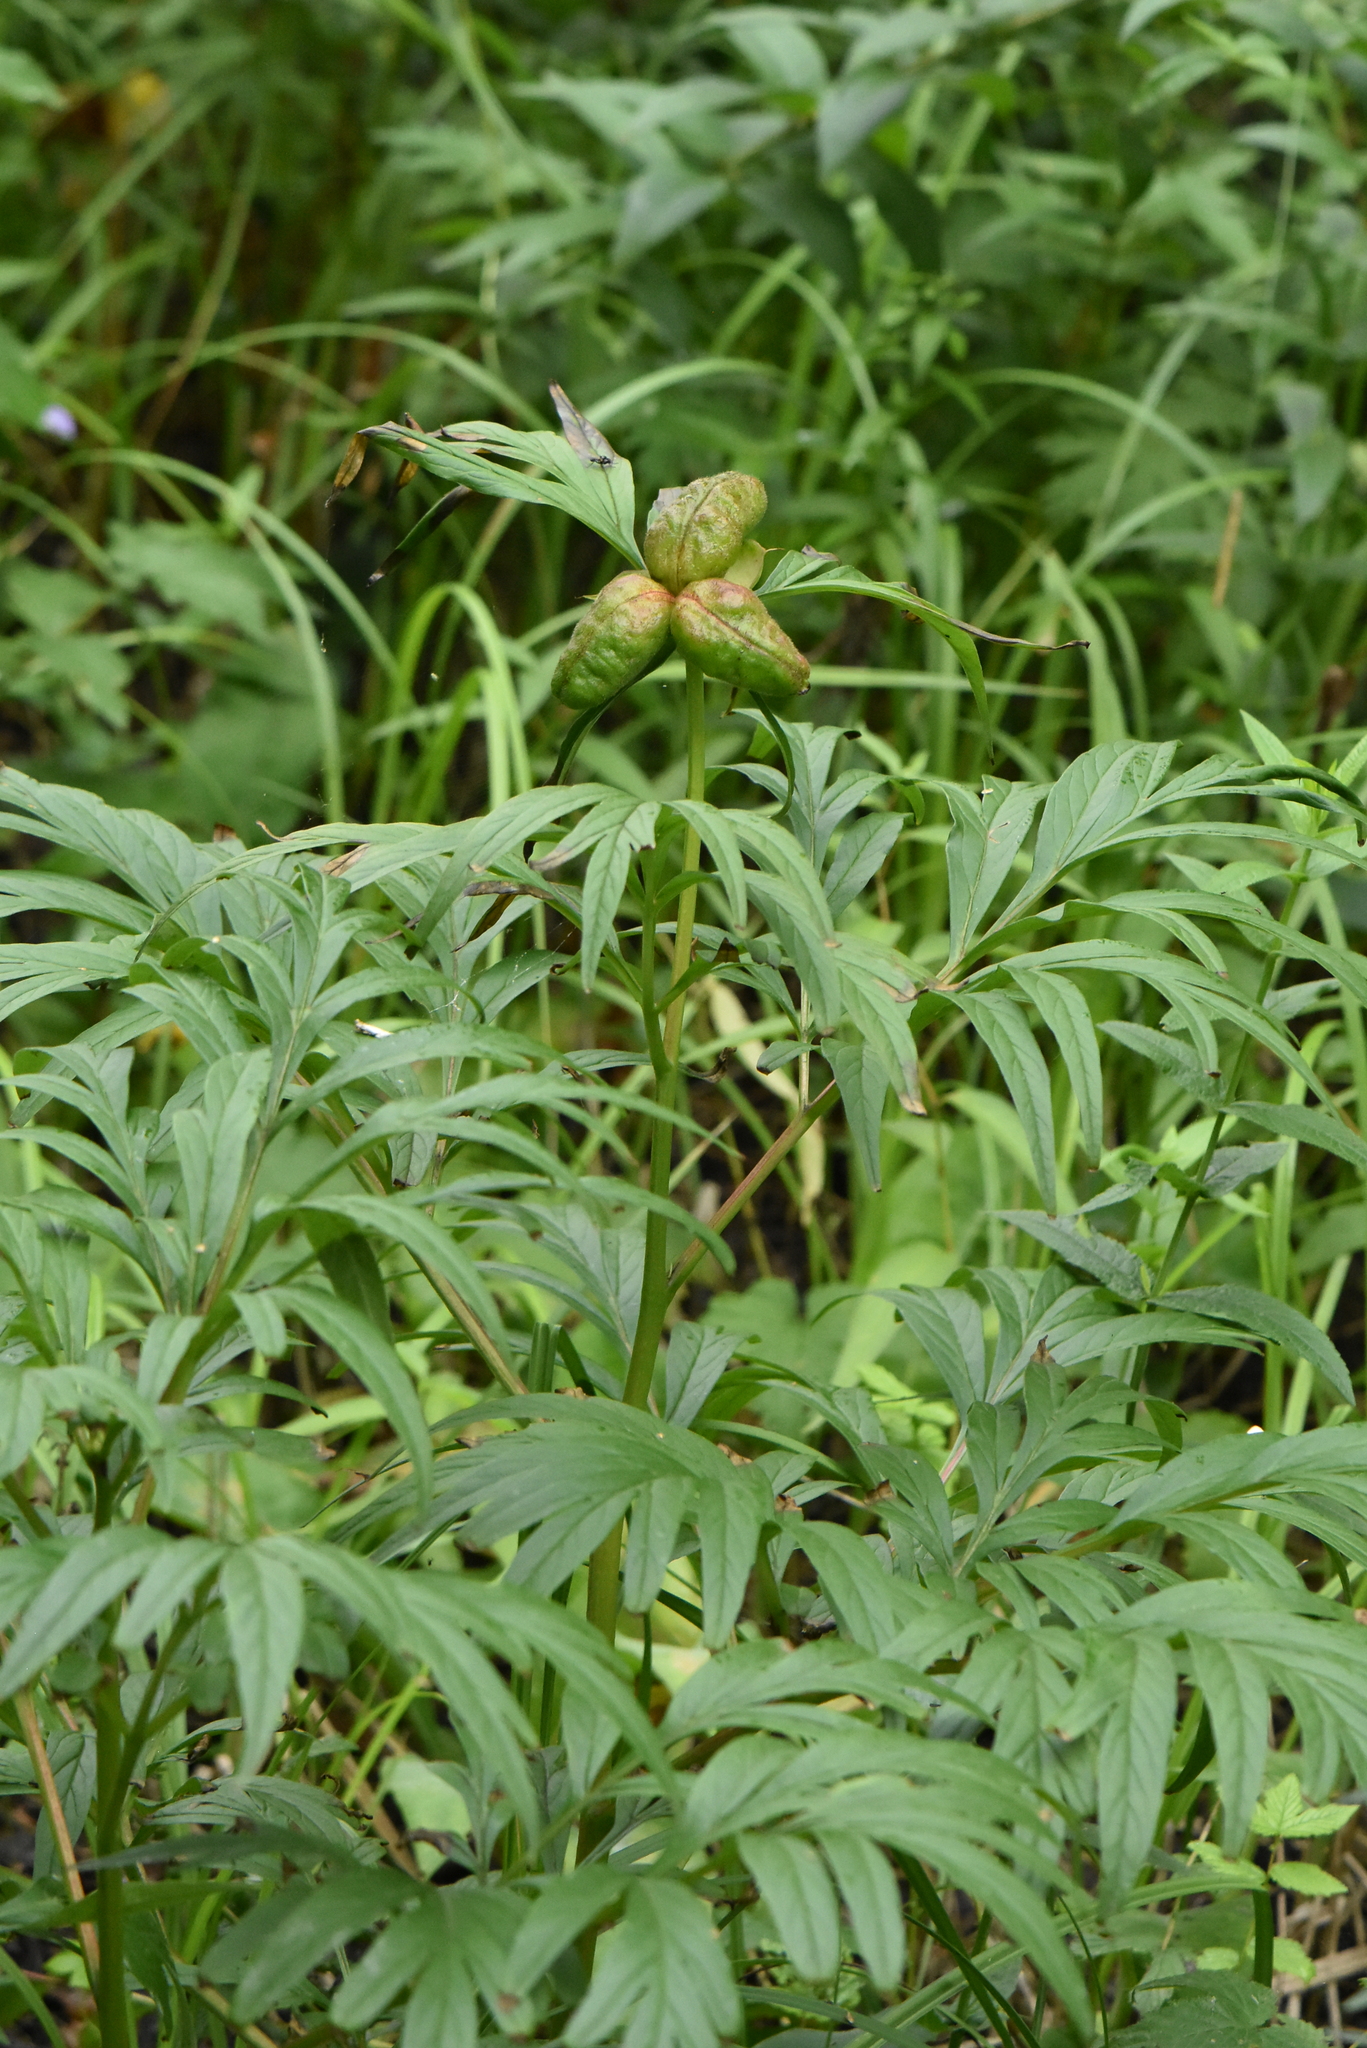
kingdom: Plantae
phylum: Tracheophyta
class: Magnoliopsida
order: Saxifragales
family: Paeoniaceae
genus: Paeonia
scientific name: Paeonia anomala
